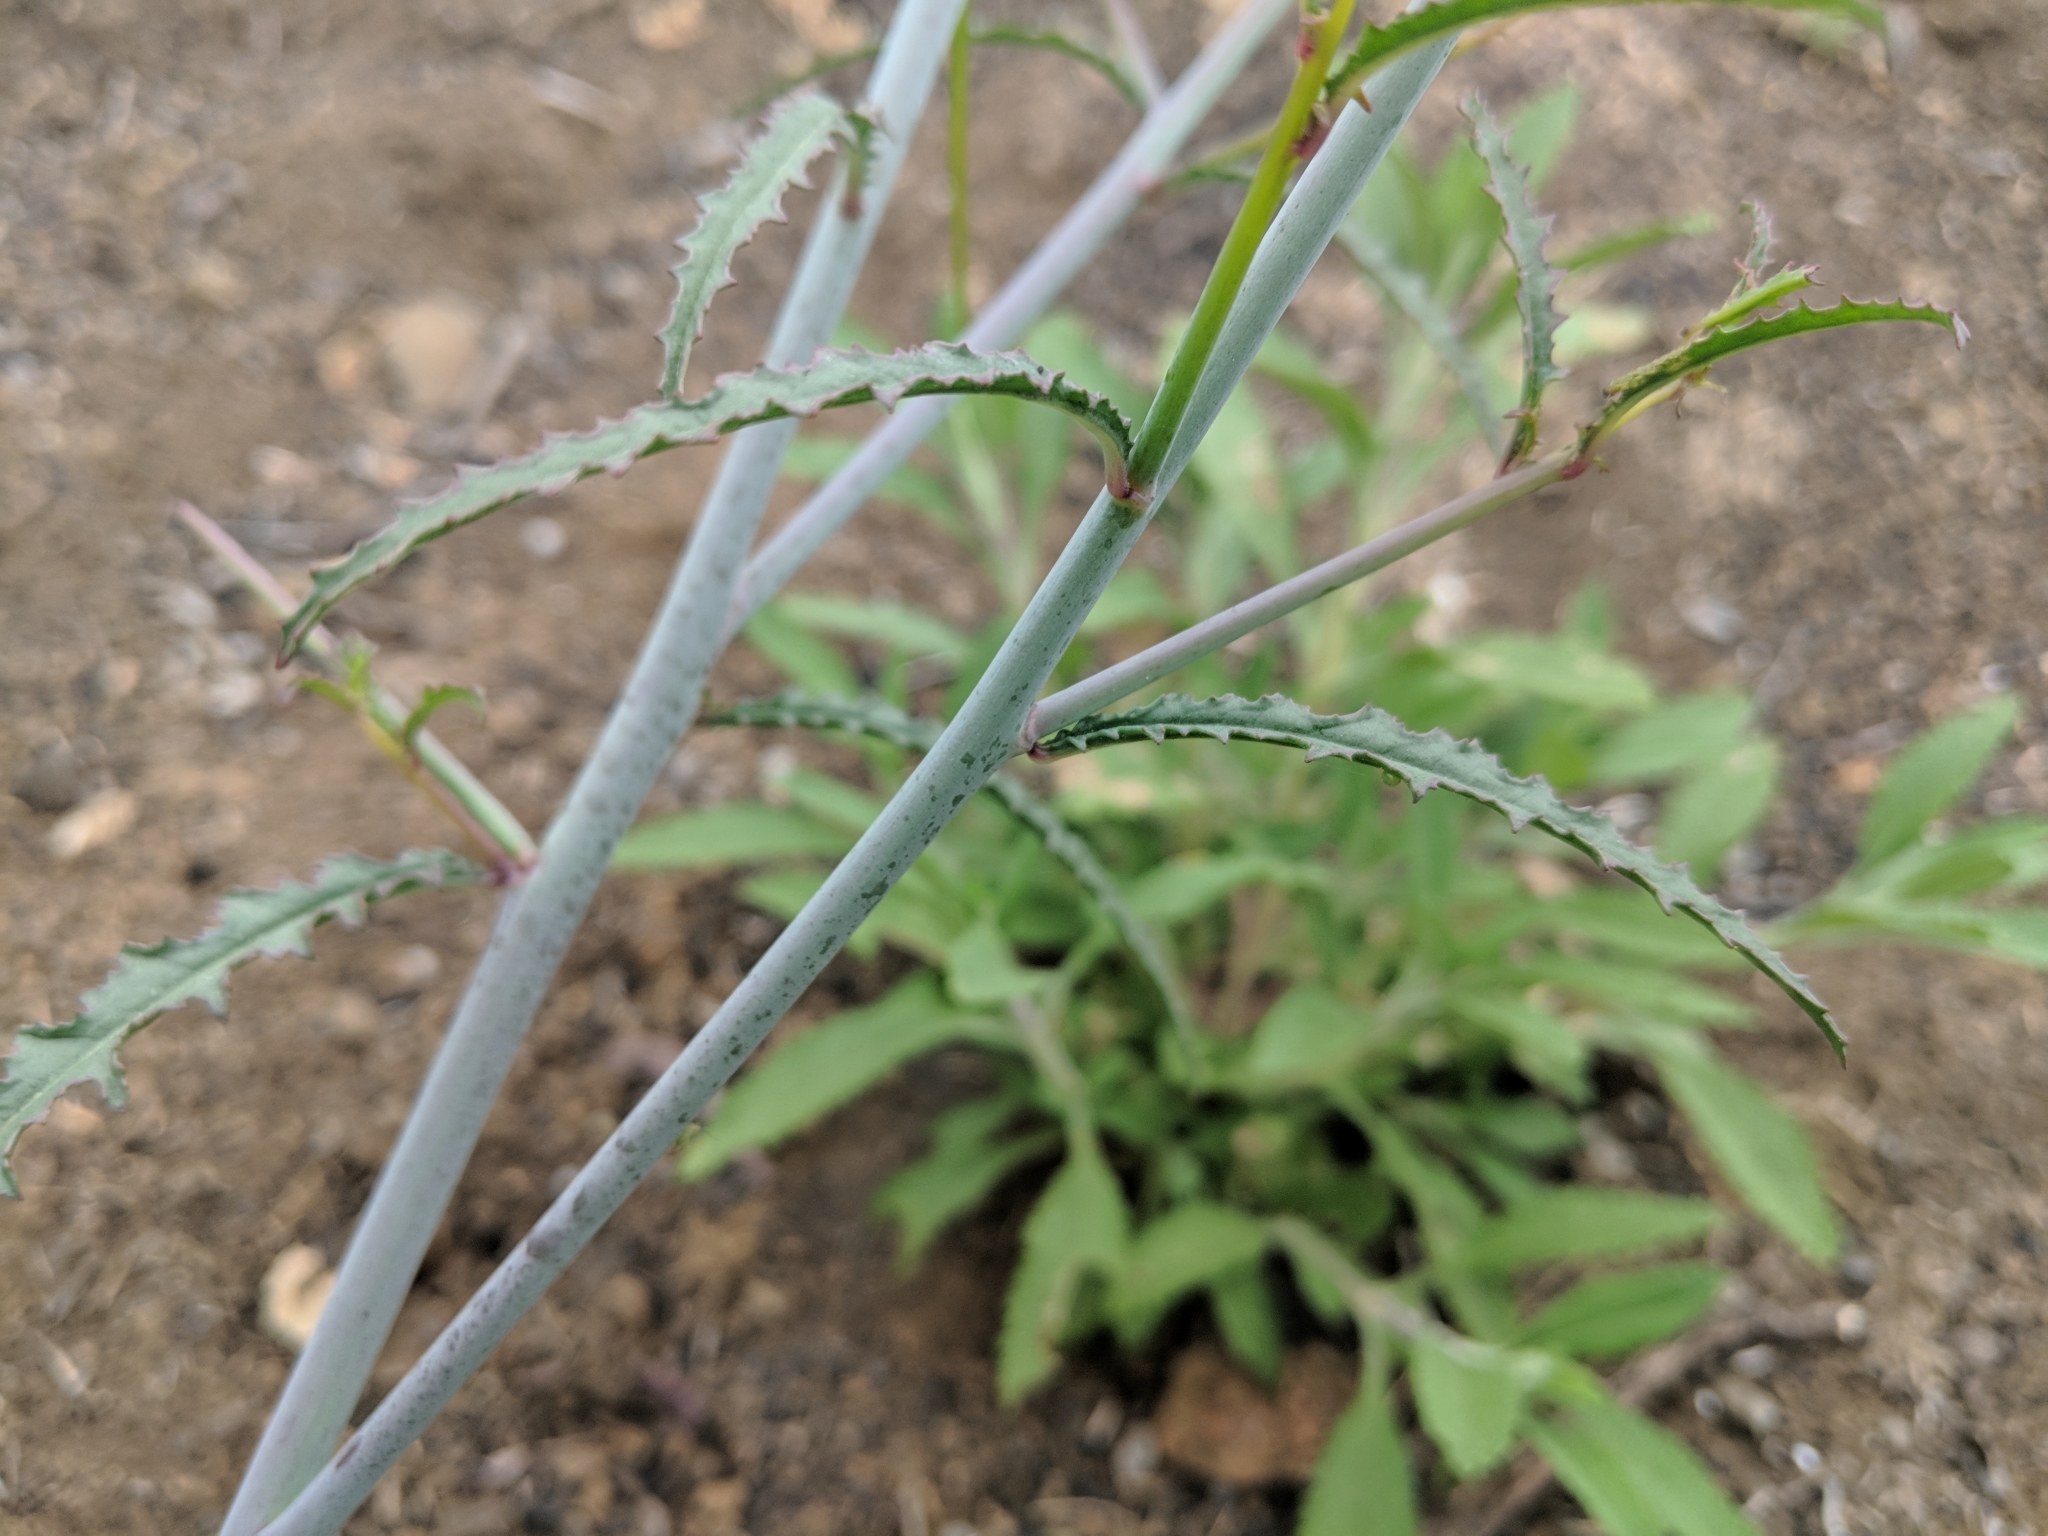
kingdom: Plantae
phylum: Tracheophyta
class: Magnoliopsida
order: Myrtales
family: Onagraceae
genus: Eulobus
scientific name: Eulobus californicus
